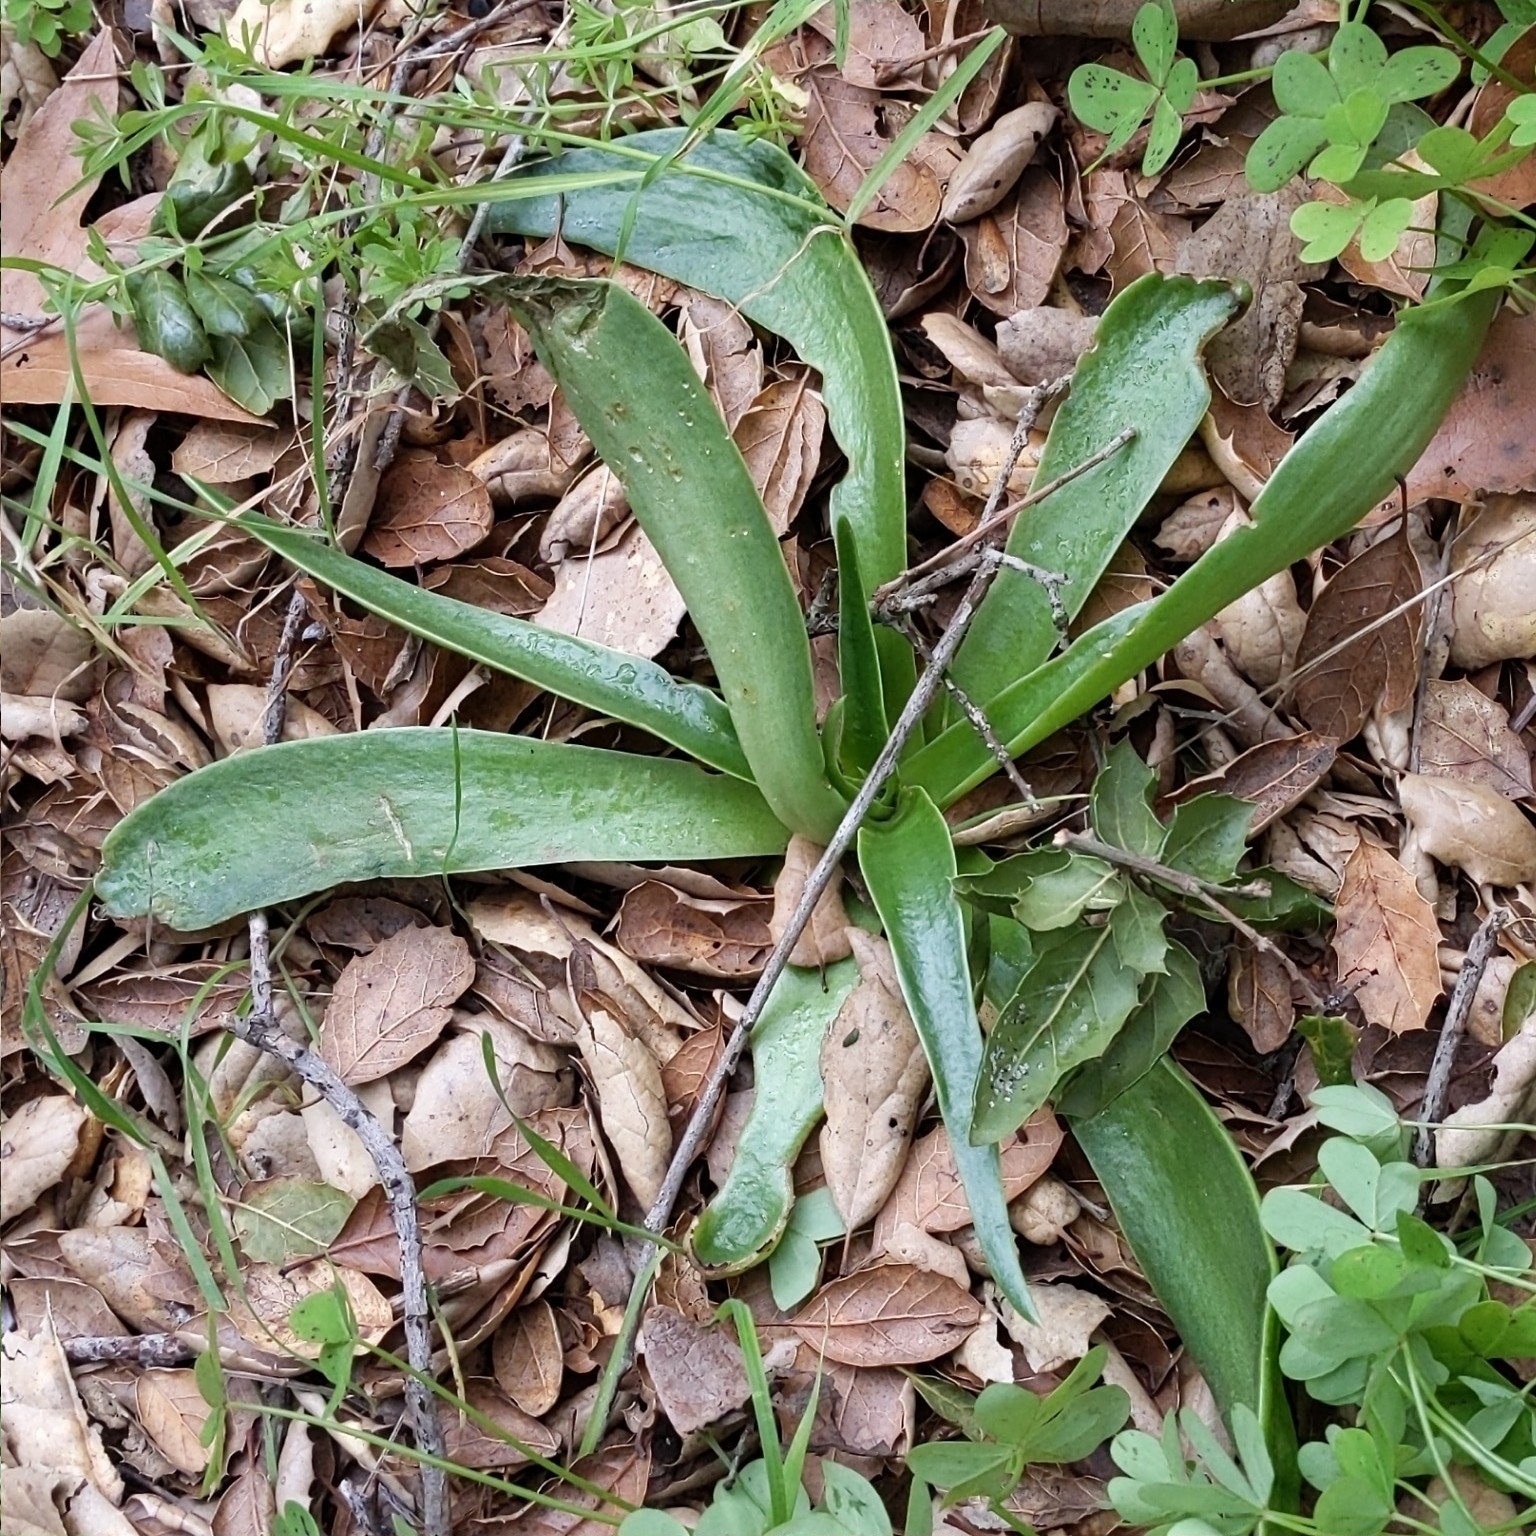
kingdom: Plantae
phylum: Tracheophyta
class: Magnoliopsida
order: Saxifragales
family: Crassulaceae
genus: Dudleya
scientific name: Dudleya lanceolata
